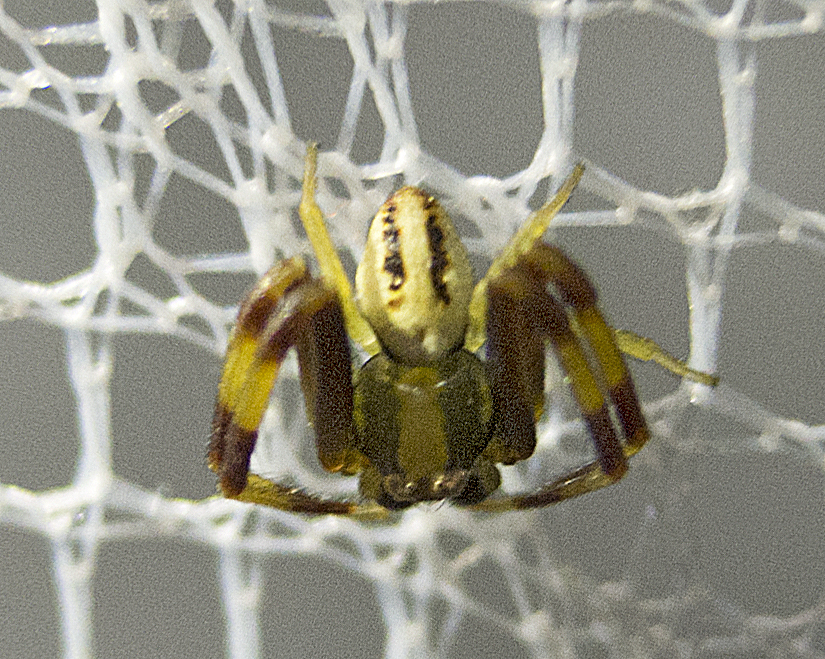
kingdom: Animalia
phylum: Arthropoda
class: Arachnida
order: Araneae
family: Thomisidae
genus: Misumena
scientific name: Misumena vatia
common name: Goldenrod crab spider
